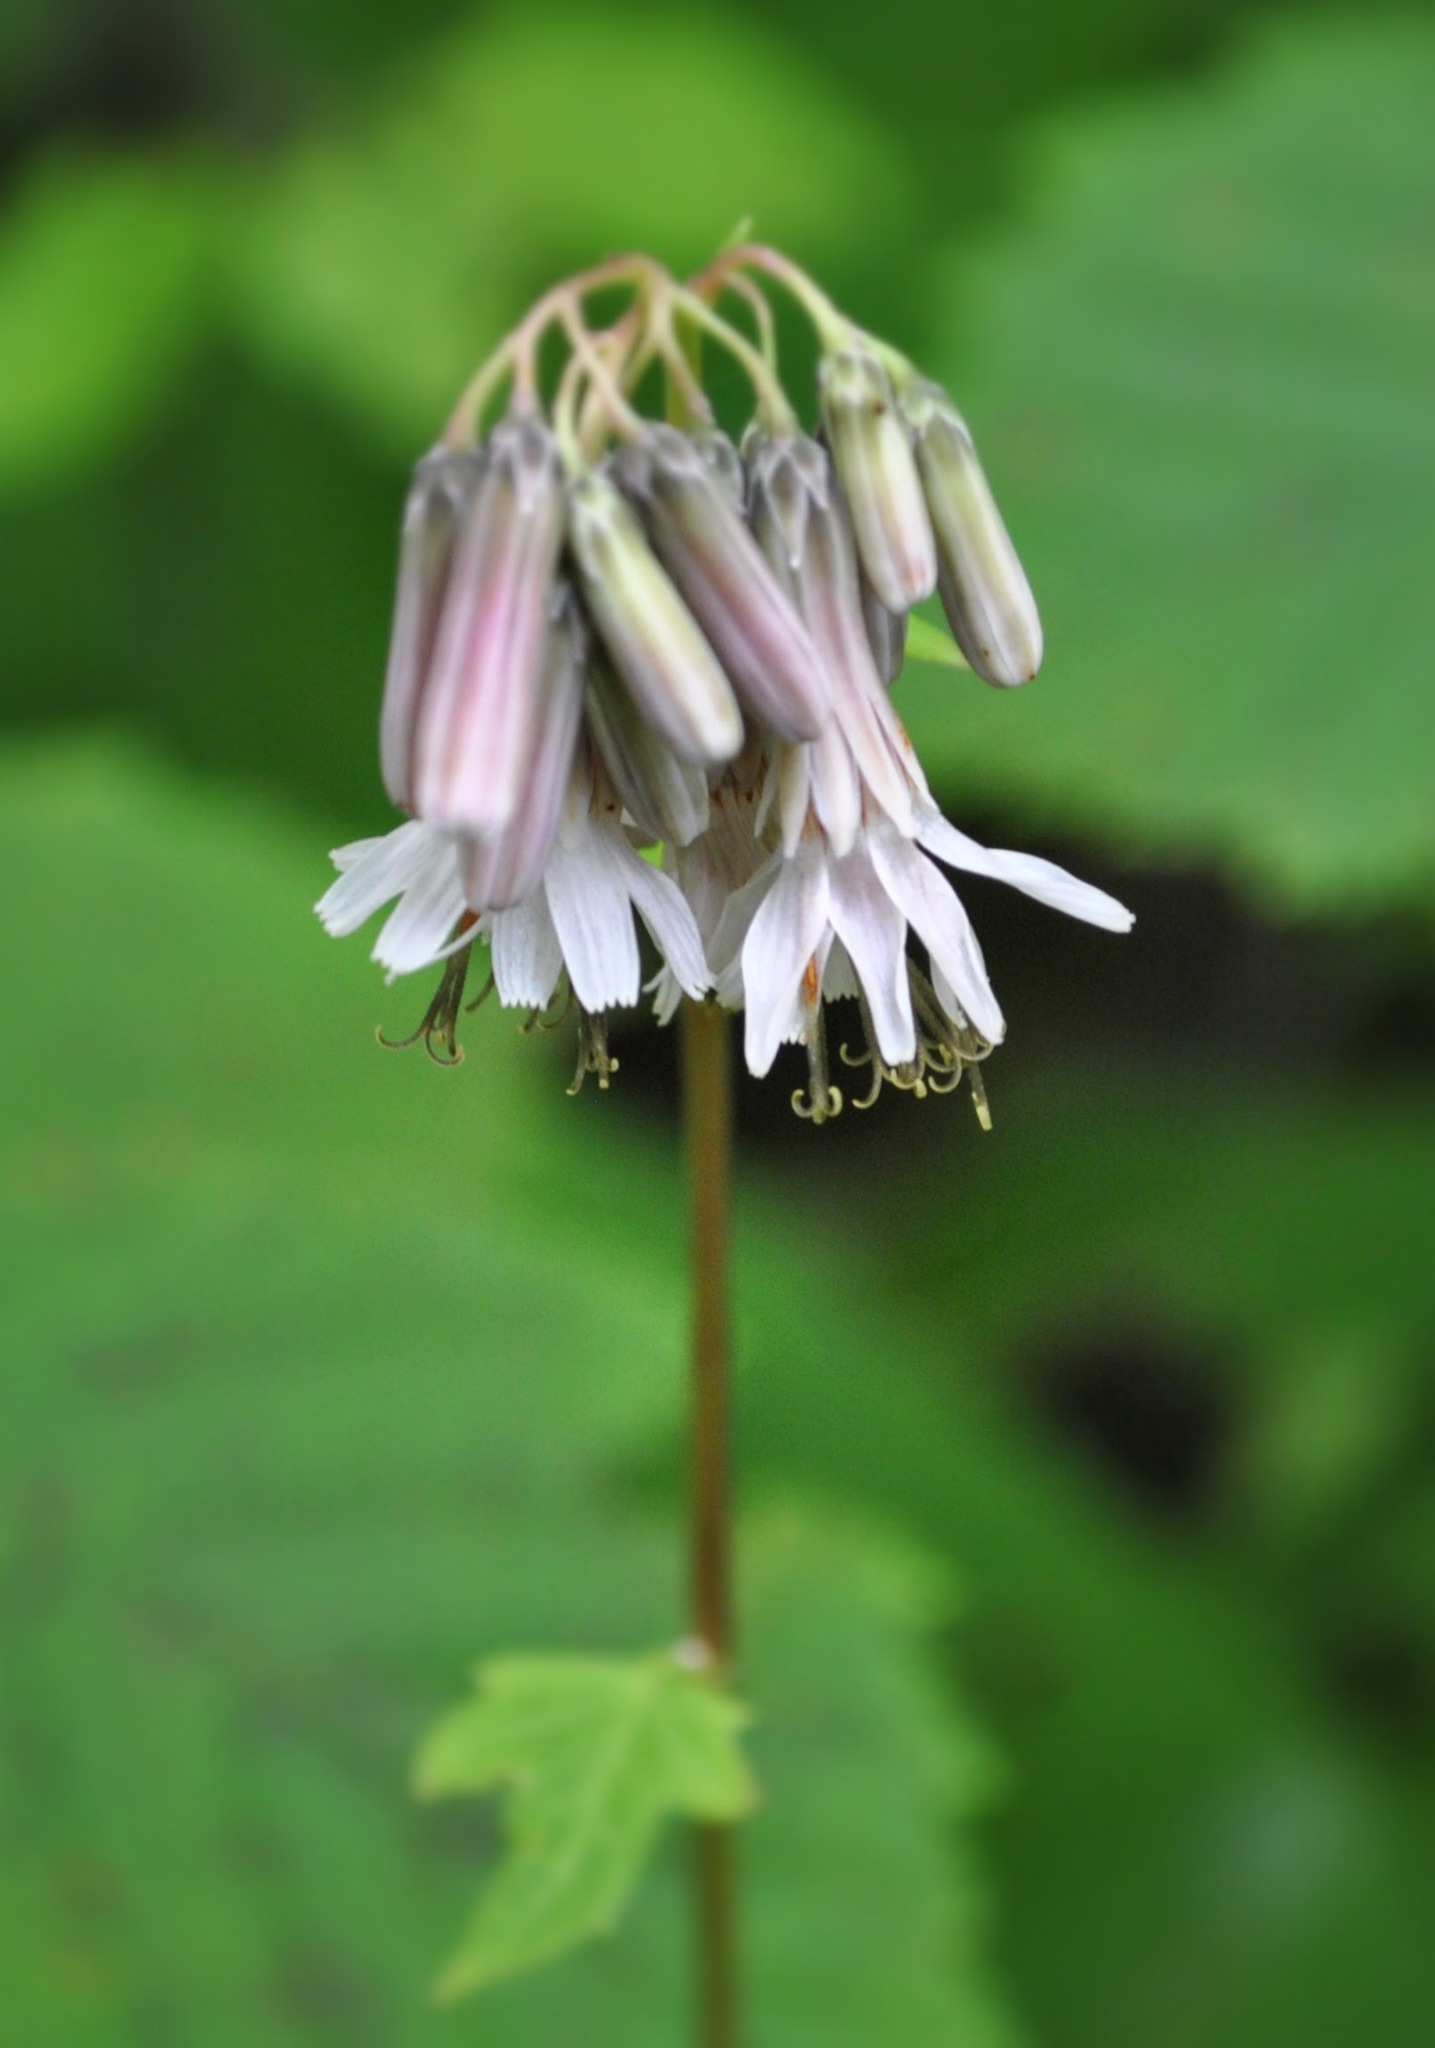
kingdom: Plantae
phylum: Tracheophyta
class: Magnoliopsida
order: Asterales
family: Asteraceae
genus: Nabalus
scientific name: Nabalus albus
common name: White rattlesnakeroot
